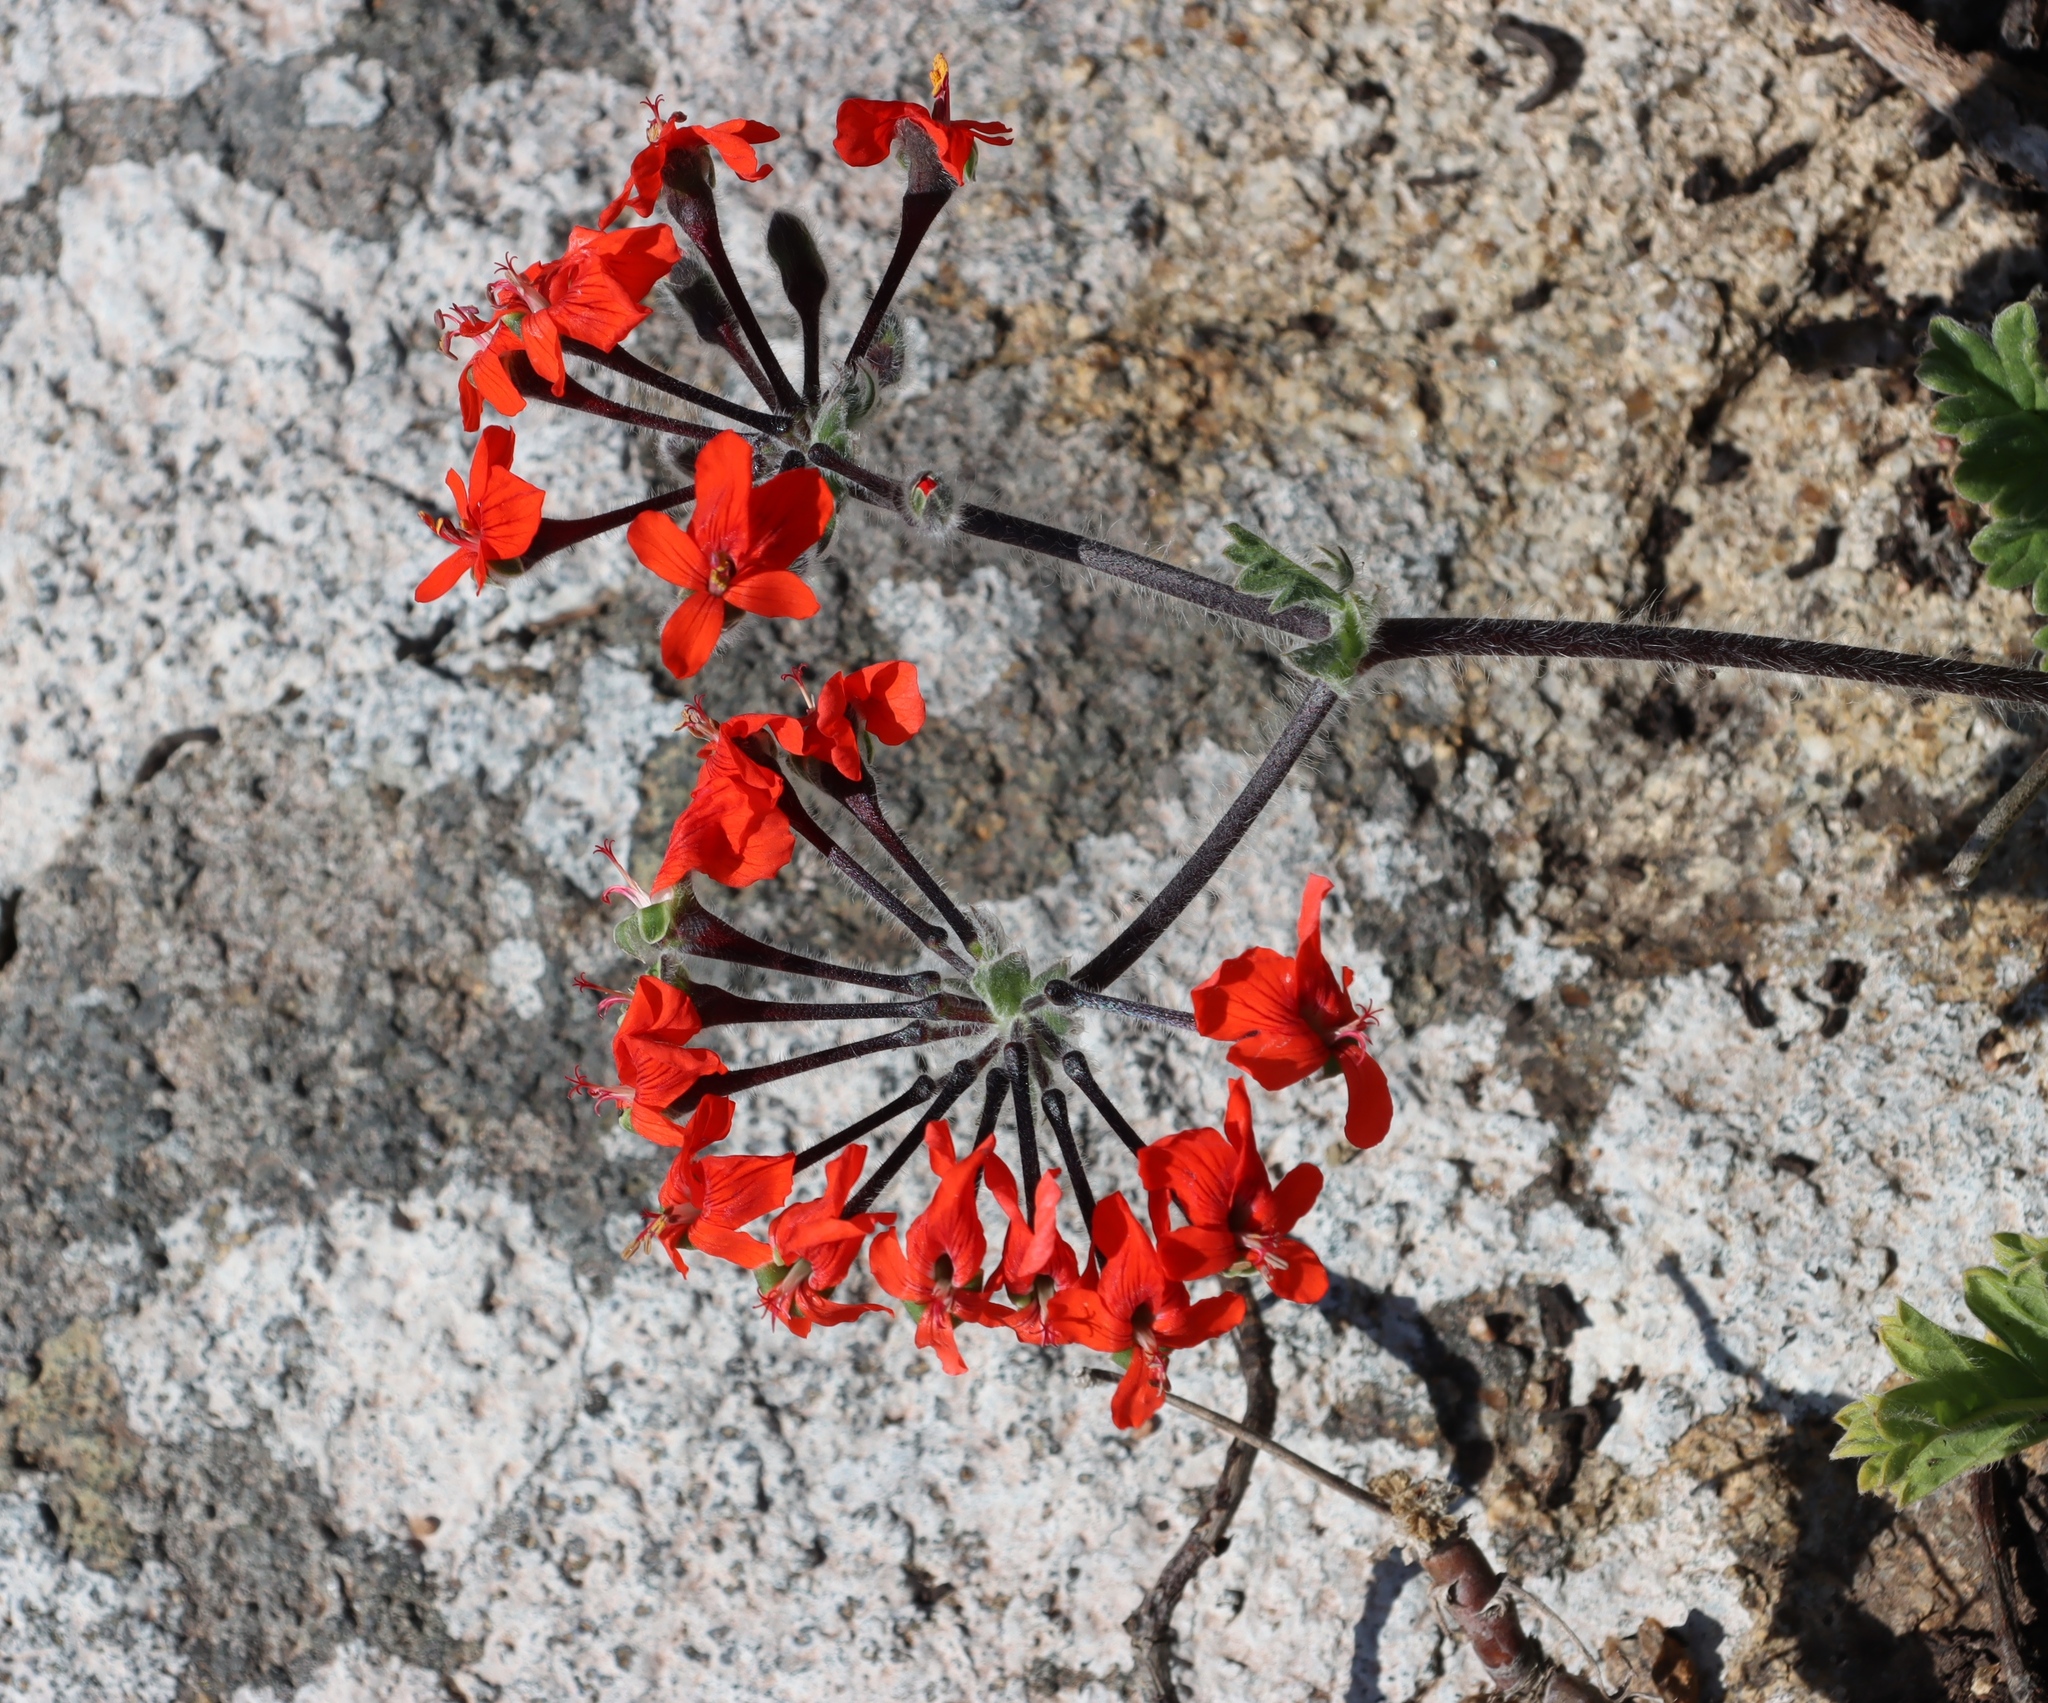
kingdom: Plantae
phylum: Tracheophyta
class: Magnoliopsida
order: Geraniales
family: Geraniaceae
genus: Pelargonium
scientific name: Pelargonium fulgidum
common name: Celandine-leaf pelargonium
